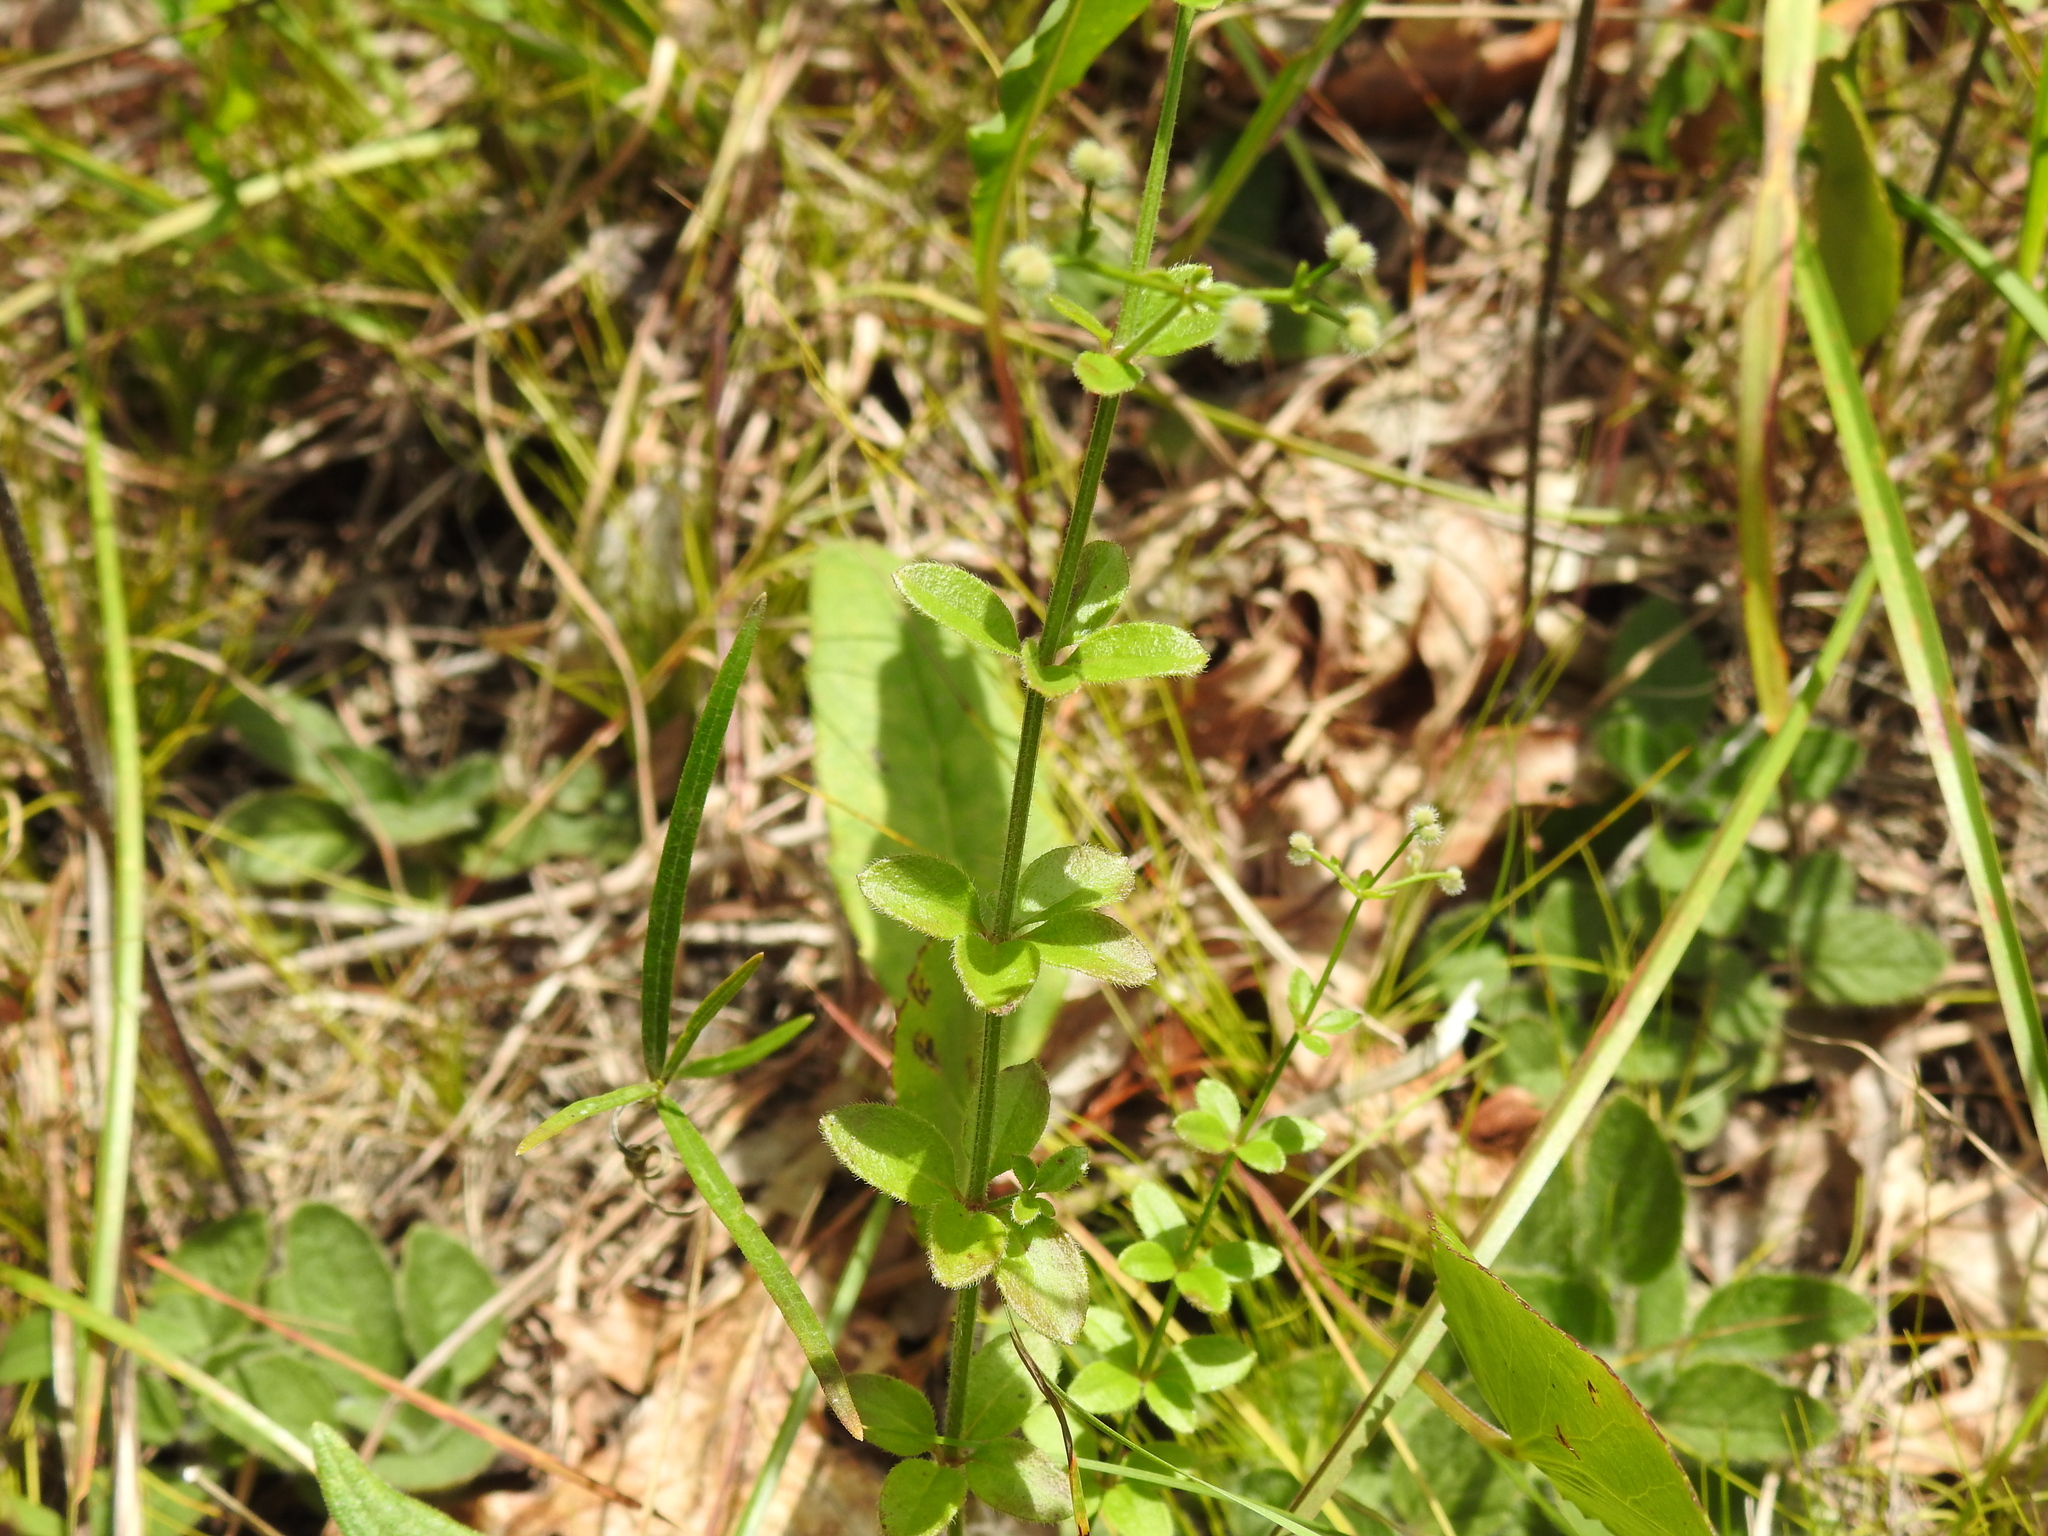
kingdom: Plantae
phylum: Tracheophyta
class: Magnoliopsida
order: Gentianales
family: Rubiaceae
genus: Galium
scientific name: Galium pilosum
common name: Hairy bedstraw
